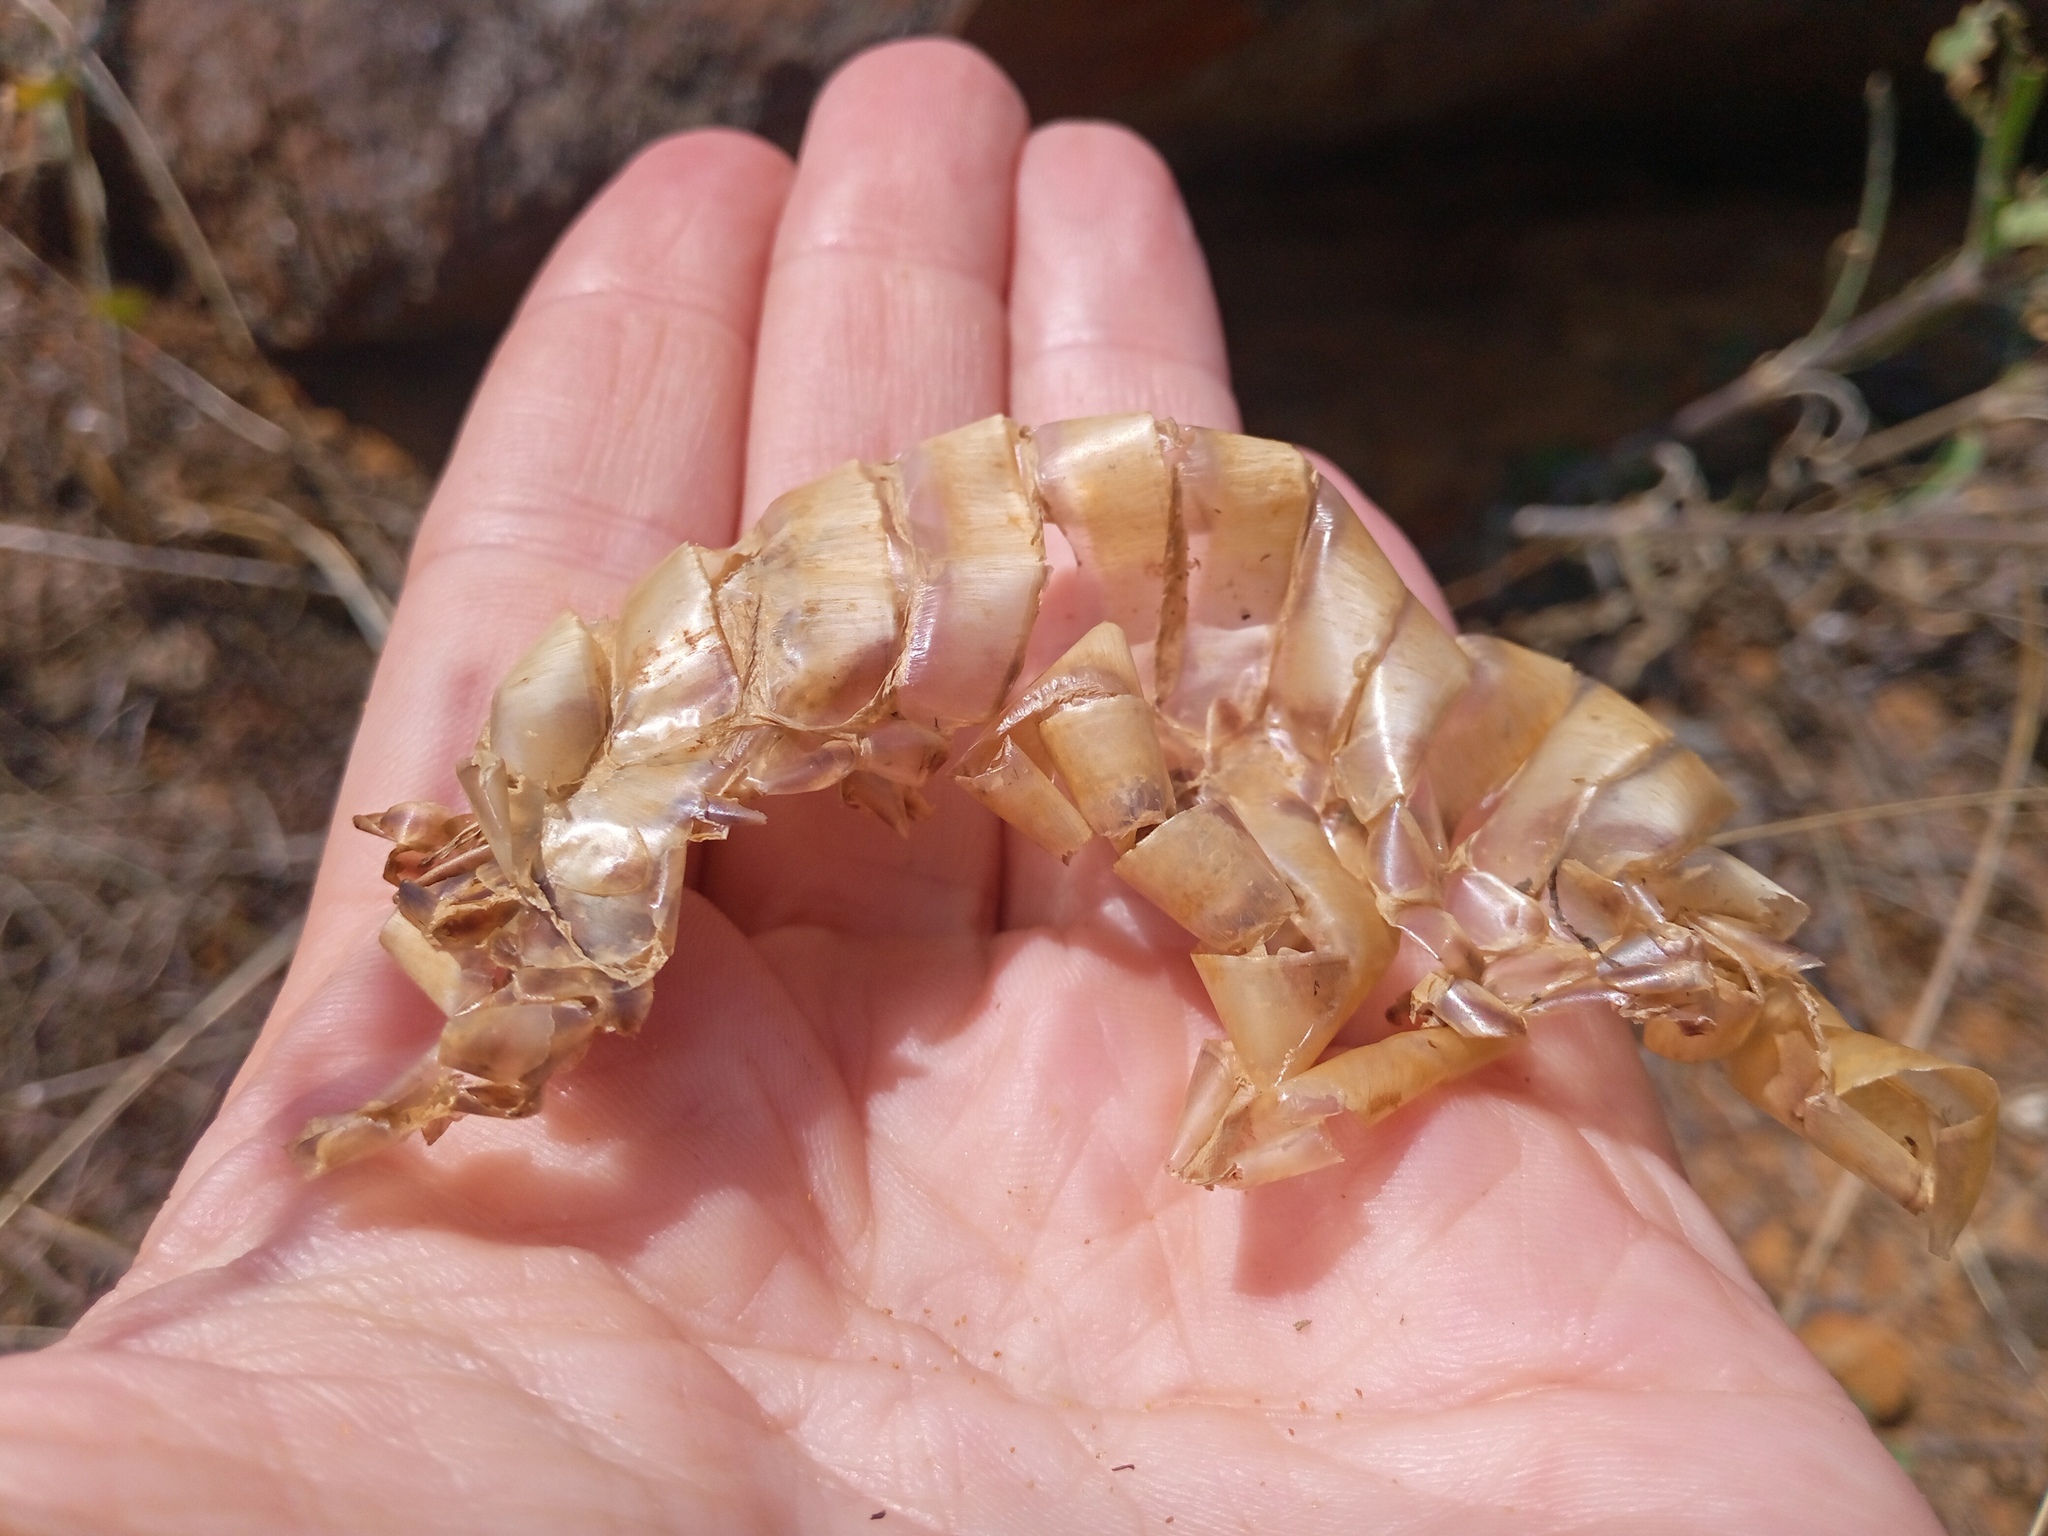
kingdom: Animalia
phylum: Chordata
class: Squamata
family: Colubridae
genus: Elaphe
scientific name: Elaphe sauromates
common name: Eastern four-lined ratsnake
